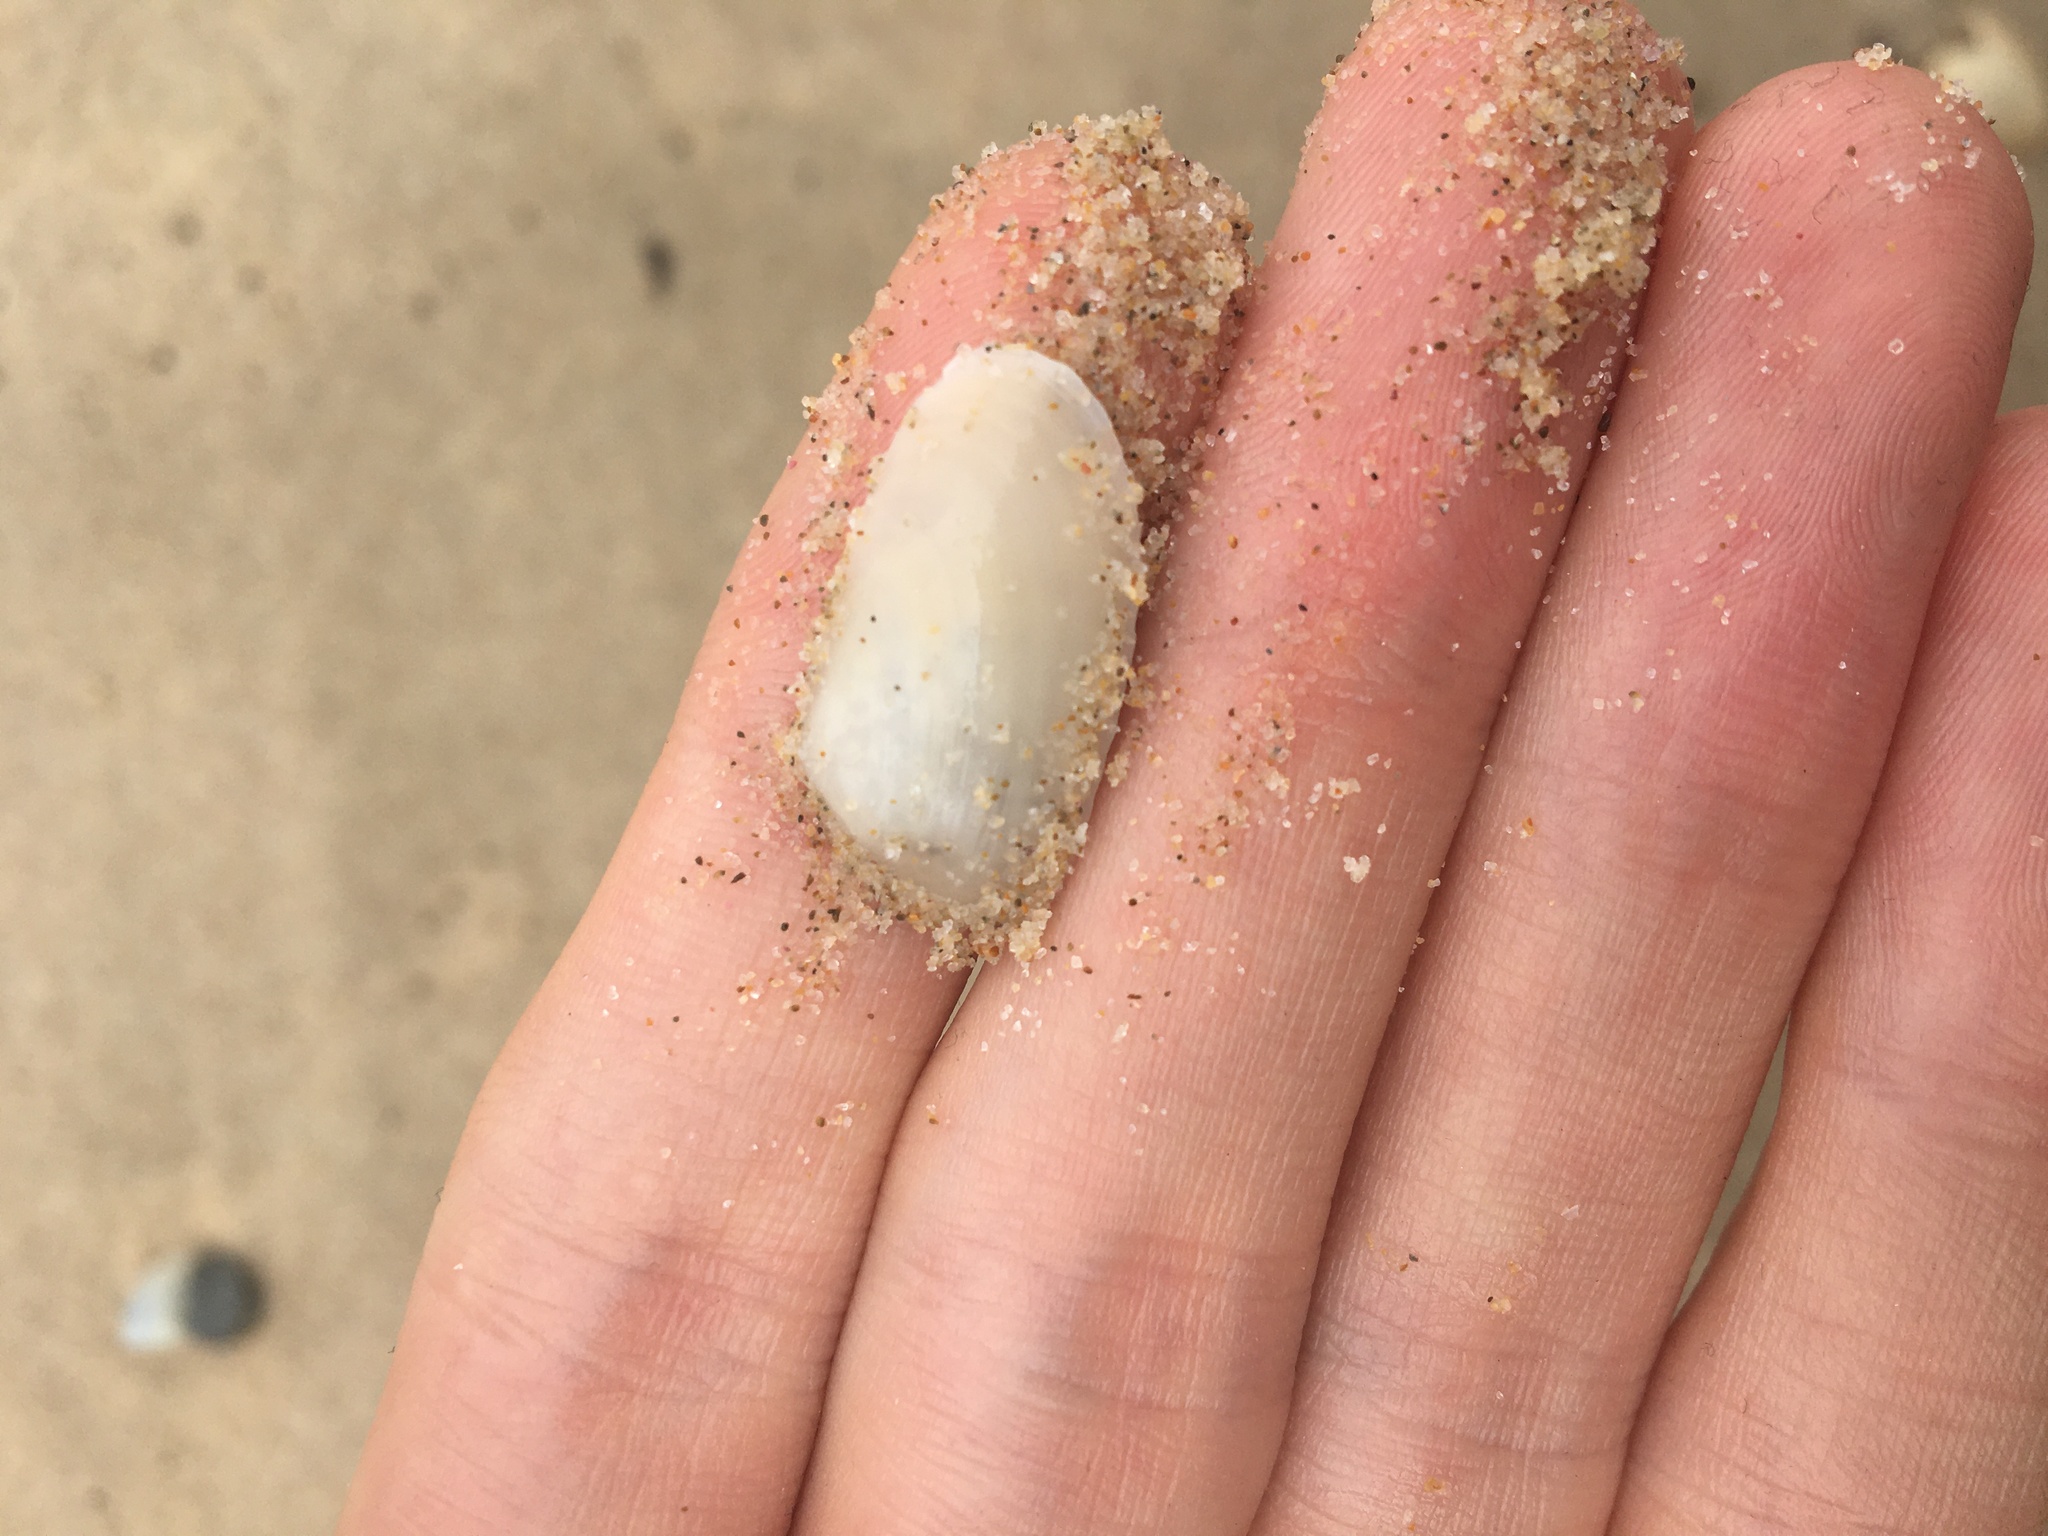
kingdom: Animalia
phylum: Mollusca
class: Bivalvia
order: Venerida
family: Mesodesmatidae
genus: Paphies
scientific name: Paphies angusta
